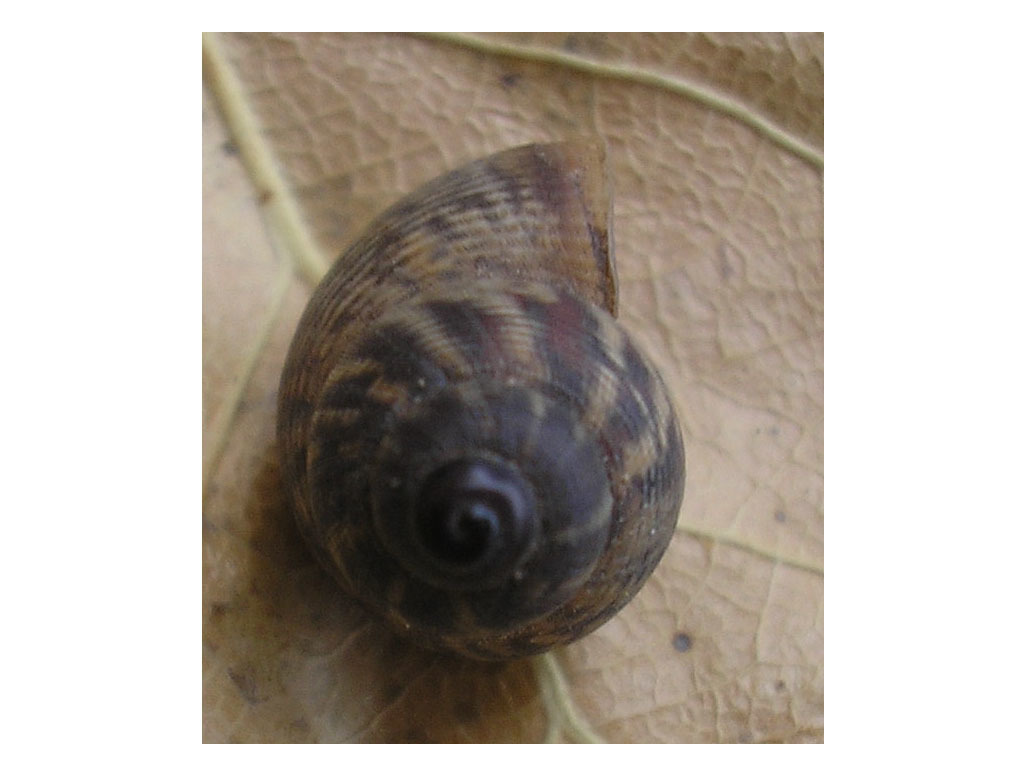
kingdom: Animalia
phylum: Mollusca
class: Gastropoda
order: Littorinimorpha
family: Pomatiidae
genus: Pomatias
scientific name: Pomatias elegans
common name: Red-mouthed snail
